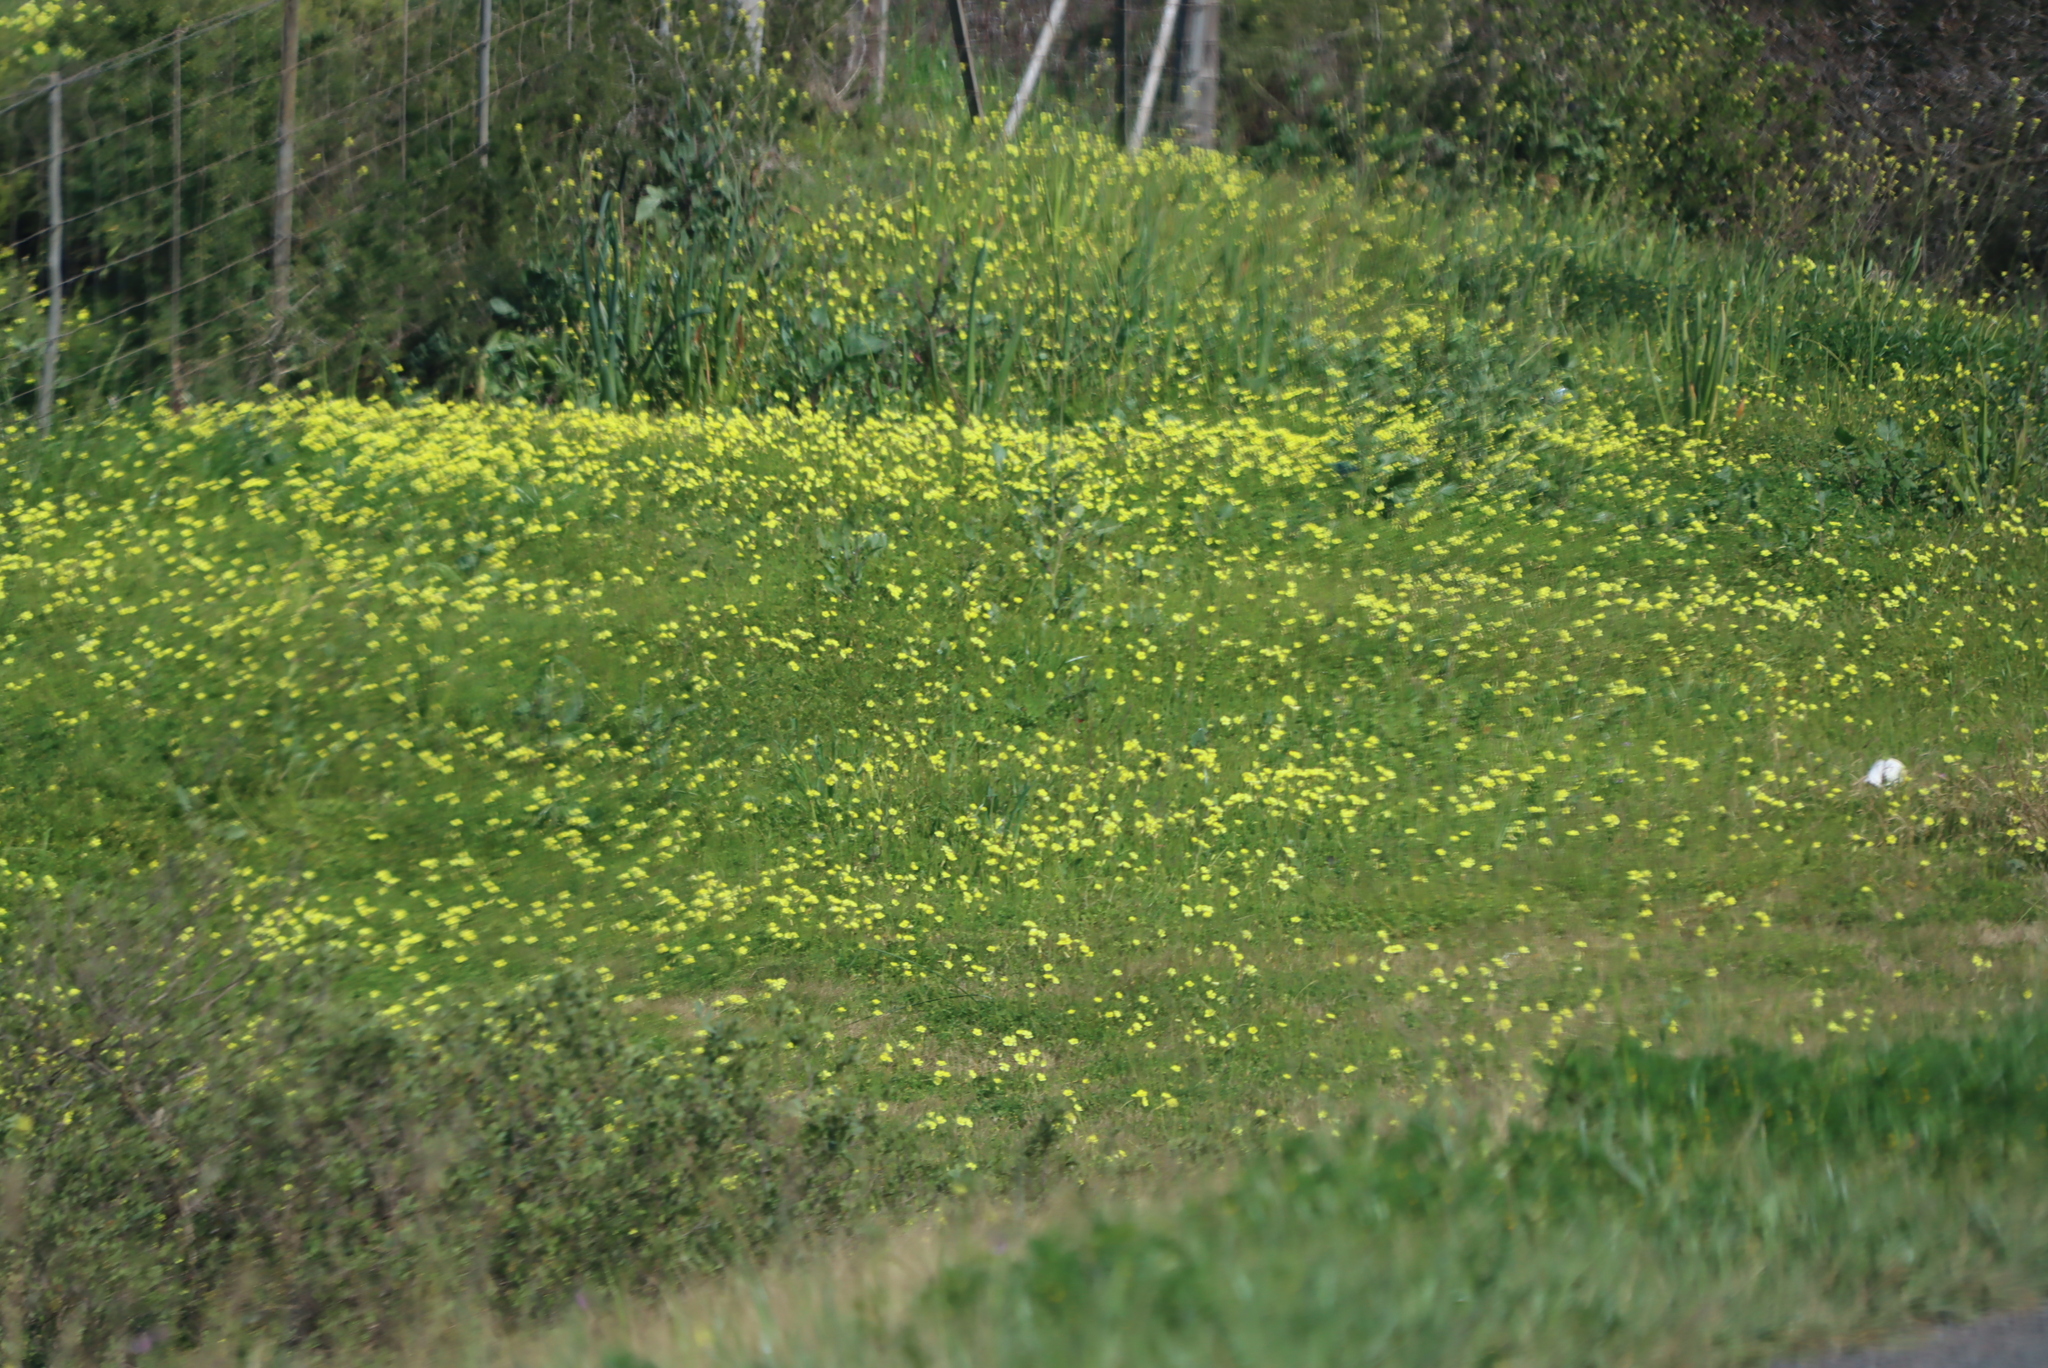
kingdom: Plantae
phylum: Tracheophyta
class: Magnoliopsida
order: Oxalidales
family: Oxalidaceae
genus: Oxalis
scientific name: Oxalis pes-caprae
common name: Bermuda-buttercup
